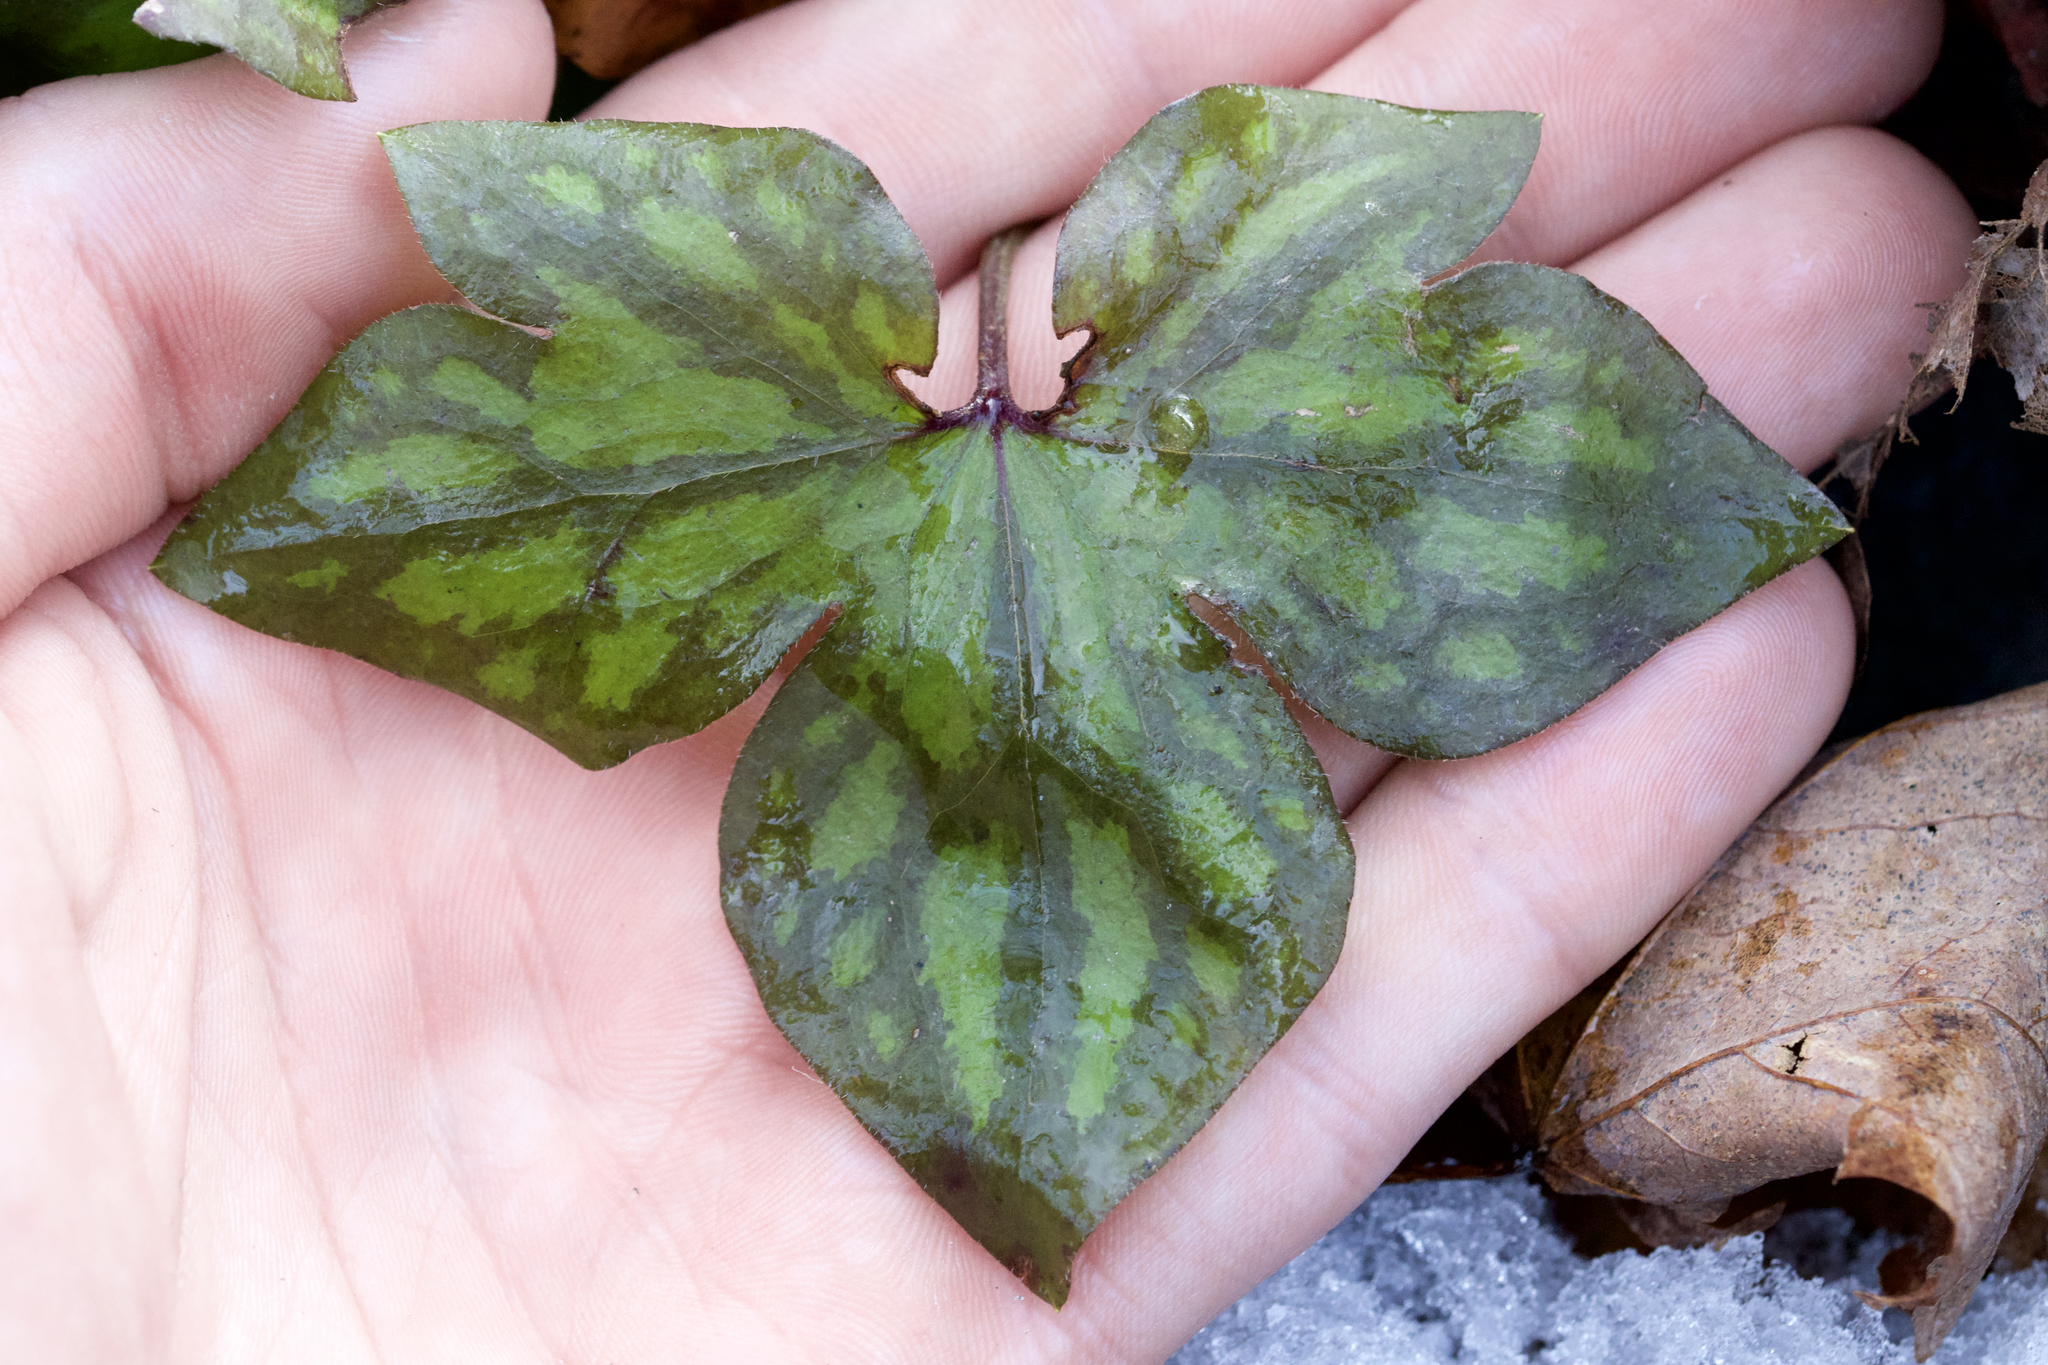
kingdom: Plantae
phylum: Tracheophyta
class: Magnoliopsida
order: Ranunculales
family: Ranunculaceae
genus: Hepatica
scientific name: Hepatica acutiloba
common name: Sharp-lobed hepatica
